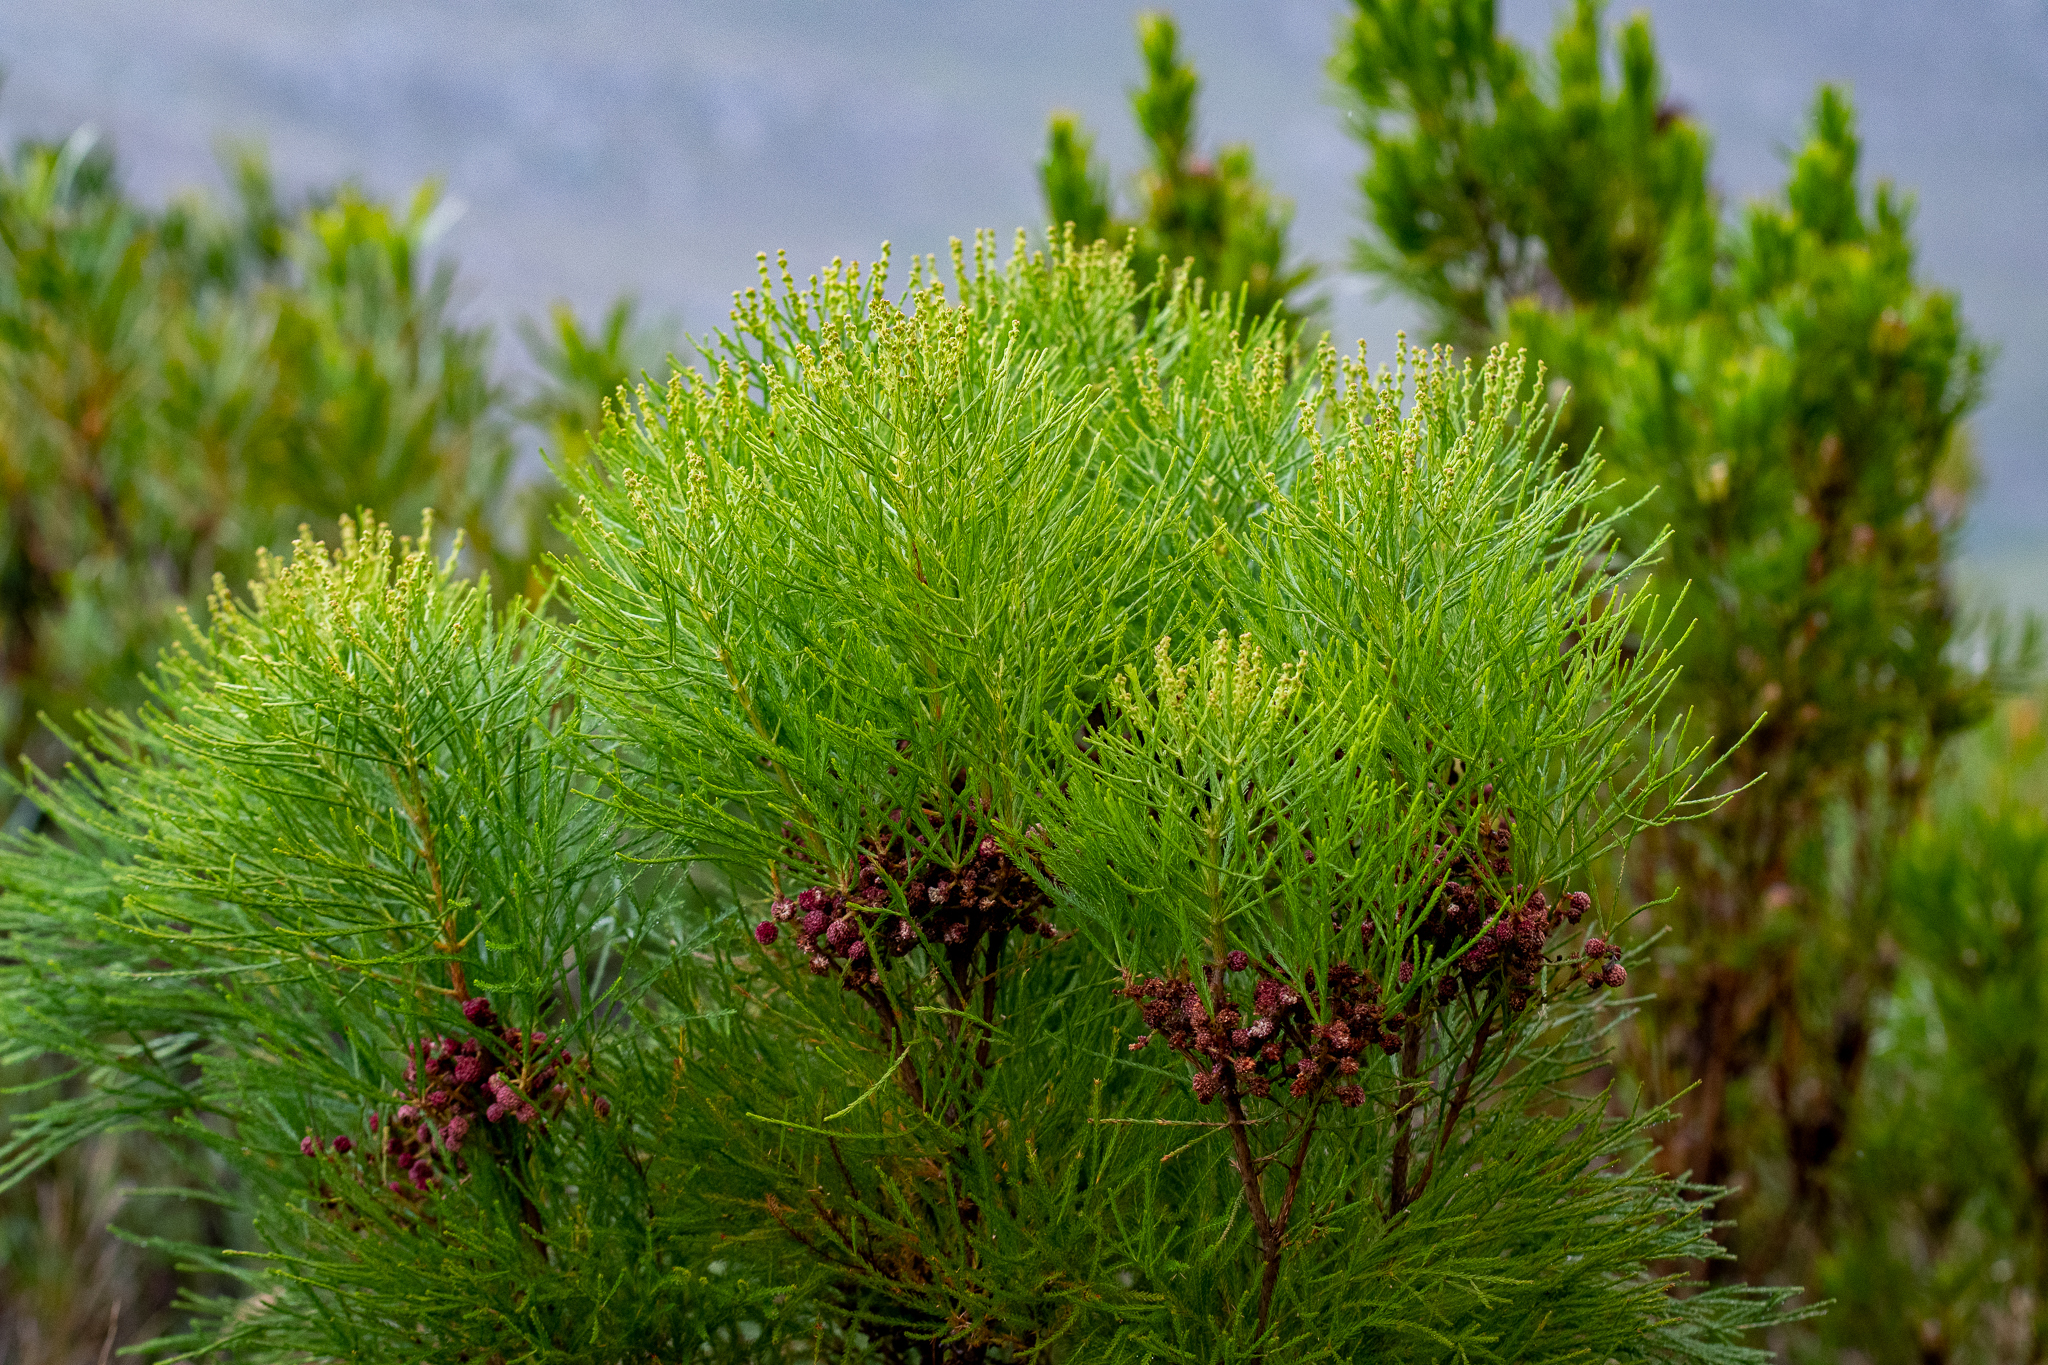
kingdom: Plantae
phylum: Tracheophyta
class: Magnoliopsida
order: Bruniales
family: Bruniaceae
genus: Berzelia
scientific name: Berzelia lanuginosa
